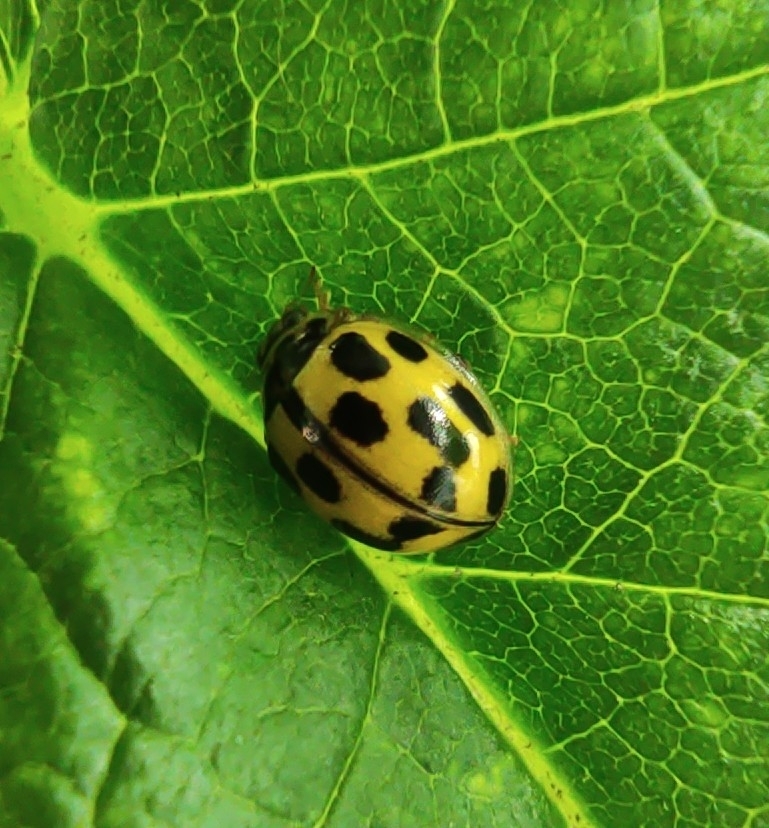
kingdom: Animalia
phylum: Arthropoda
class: Insecta
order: Coleoptera
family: Coccinellidae
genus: Propylaea
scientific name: Propylaea quatuordecimpunctata
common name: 14-spotted ladybird beetle
